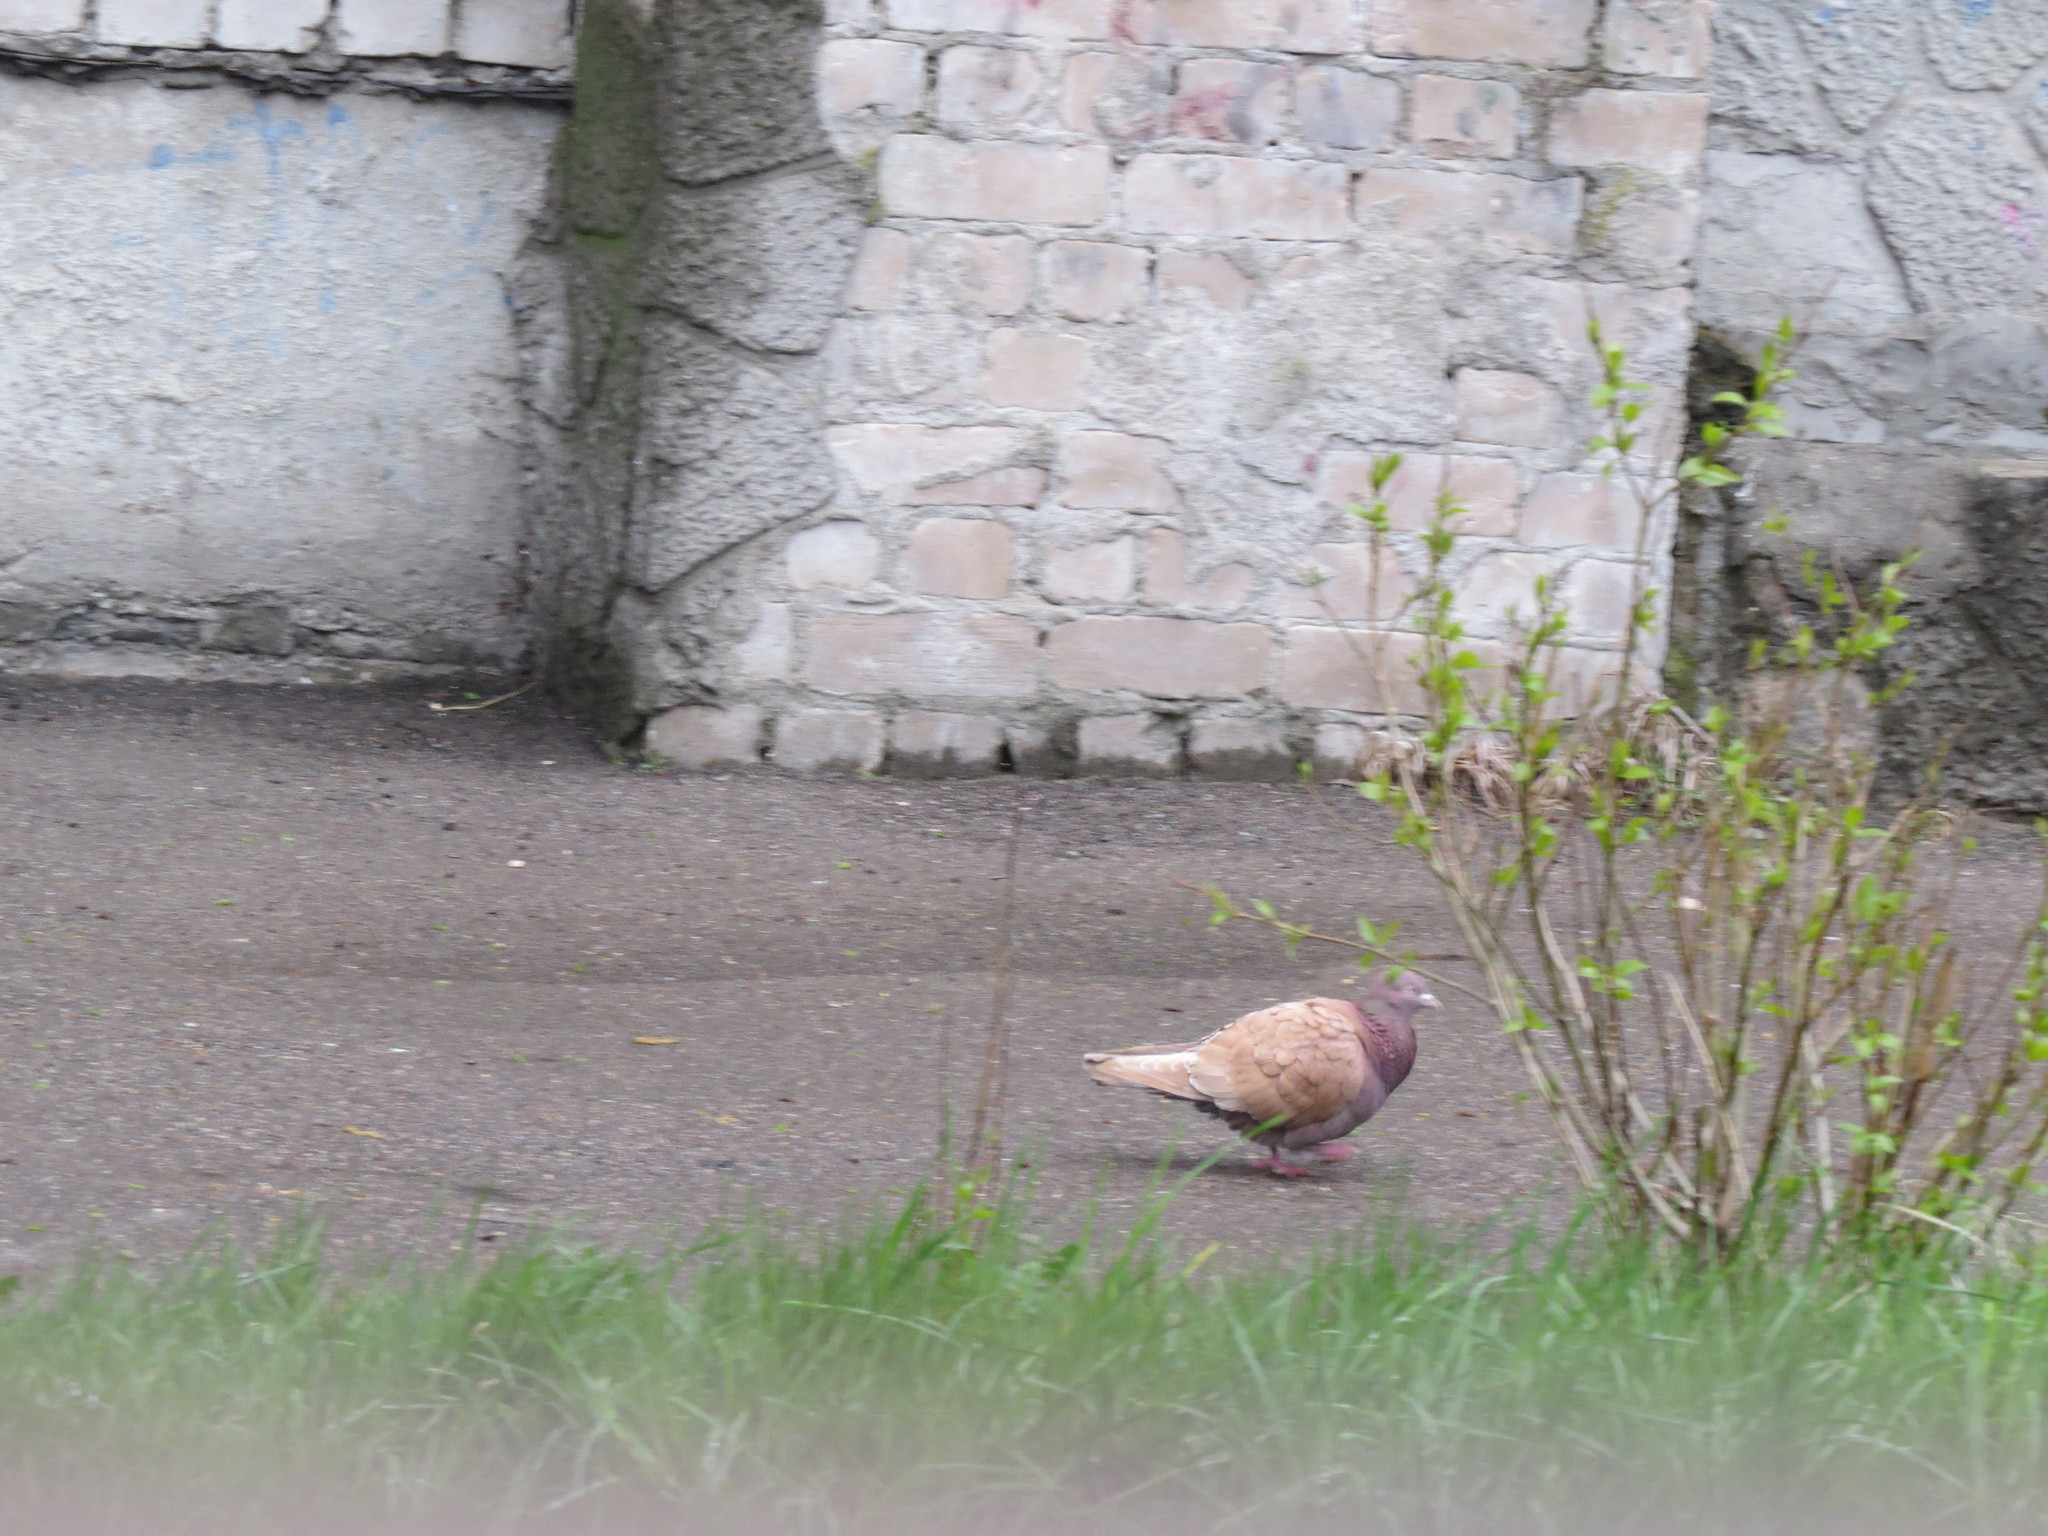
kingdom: Animalia
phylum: Chordata
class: Aves
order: Columbiformes
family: Columbidae
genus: Columba
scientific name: Columba livia
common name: Rock pigeon
